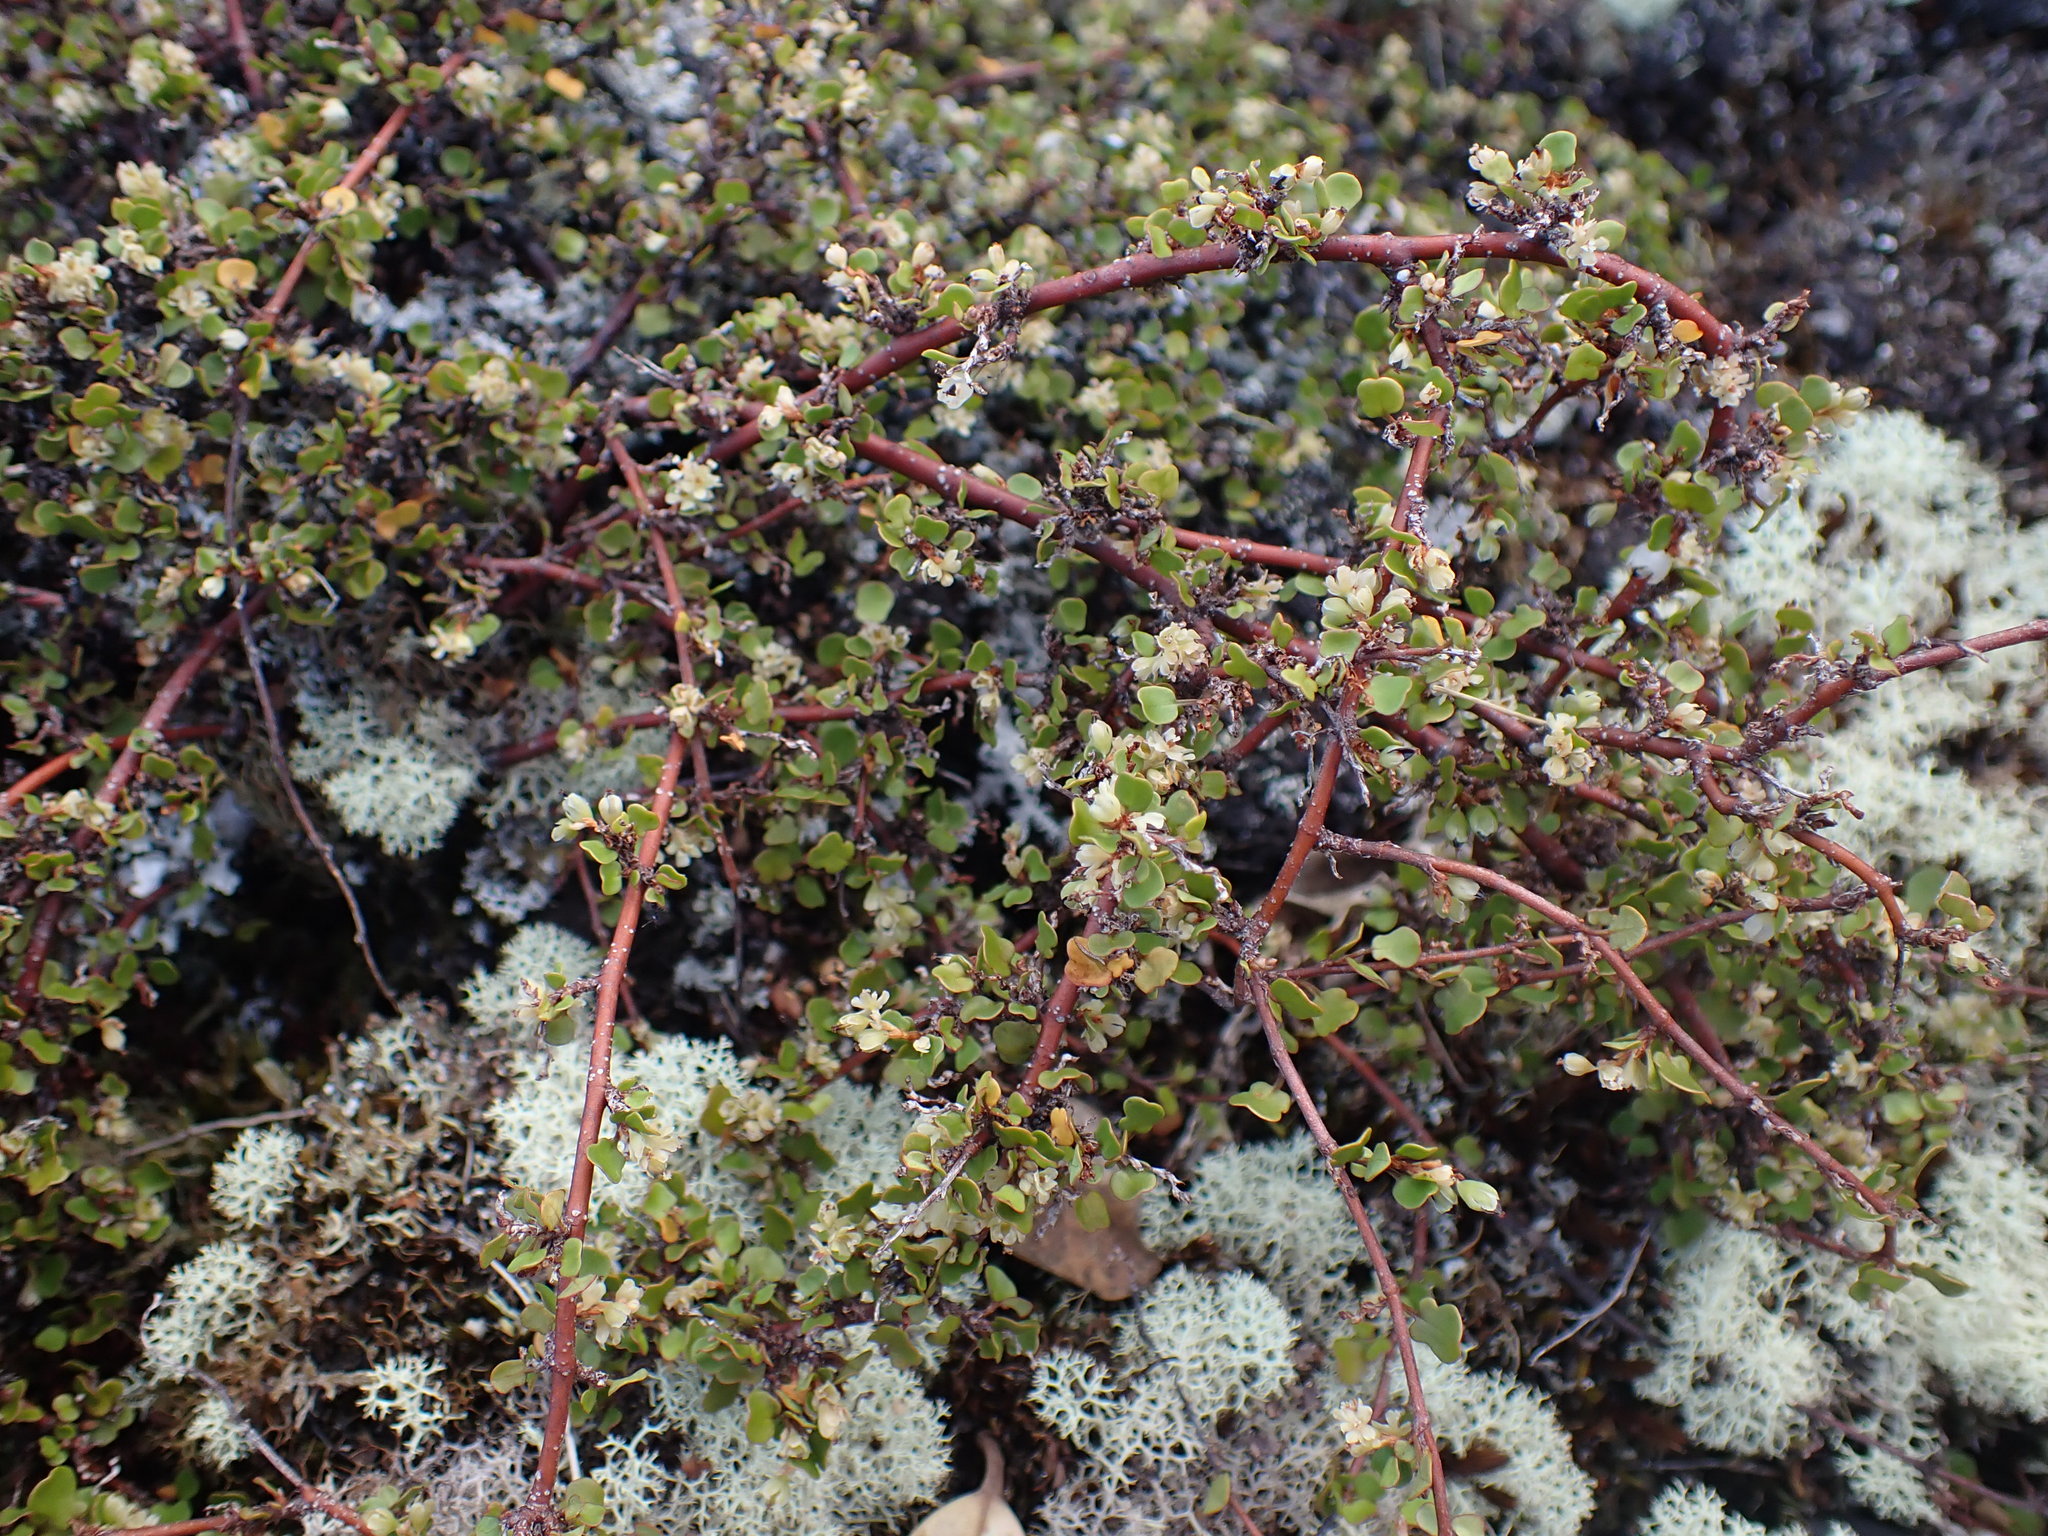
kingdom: Plantae
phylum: Tracheophyta
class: Magnoliopsida
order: Caryophyllales
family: Polygonaceae
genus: Muehlenbeckia
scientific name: Muehlenbeckia complexa
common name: Wireplant
